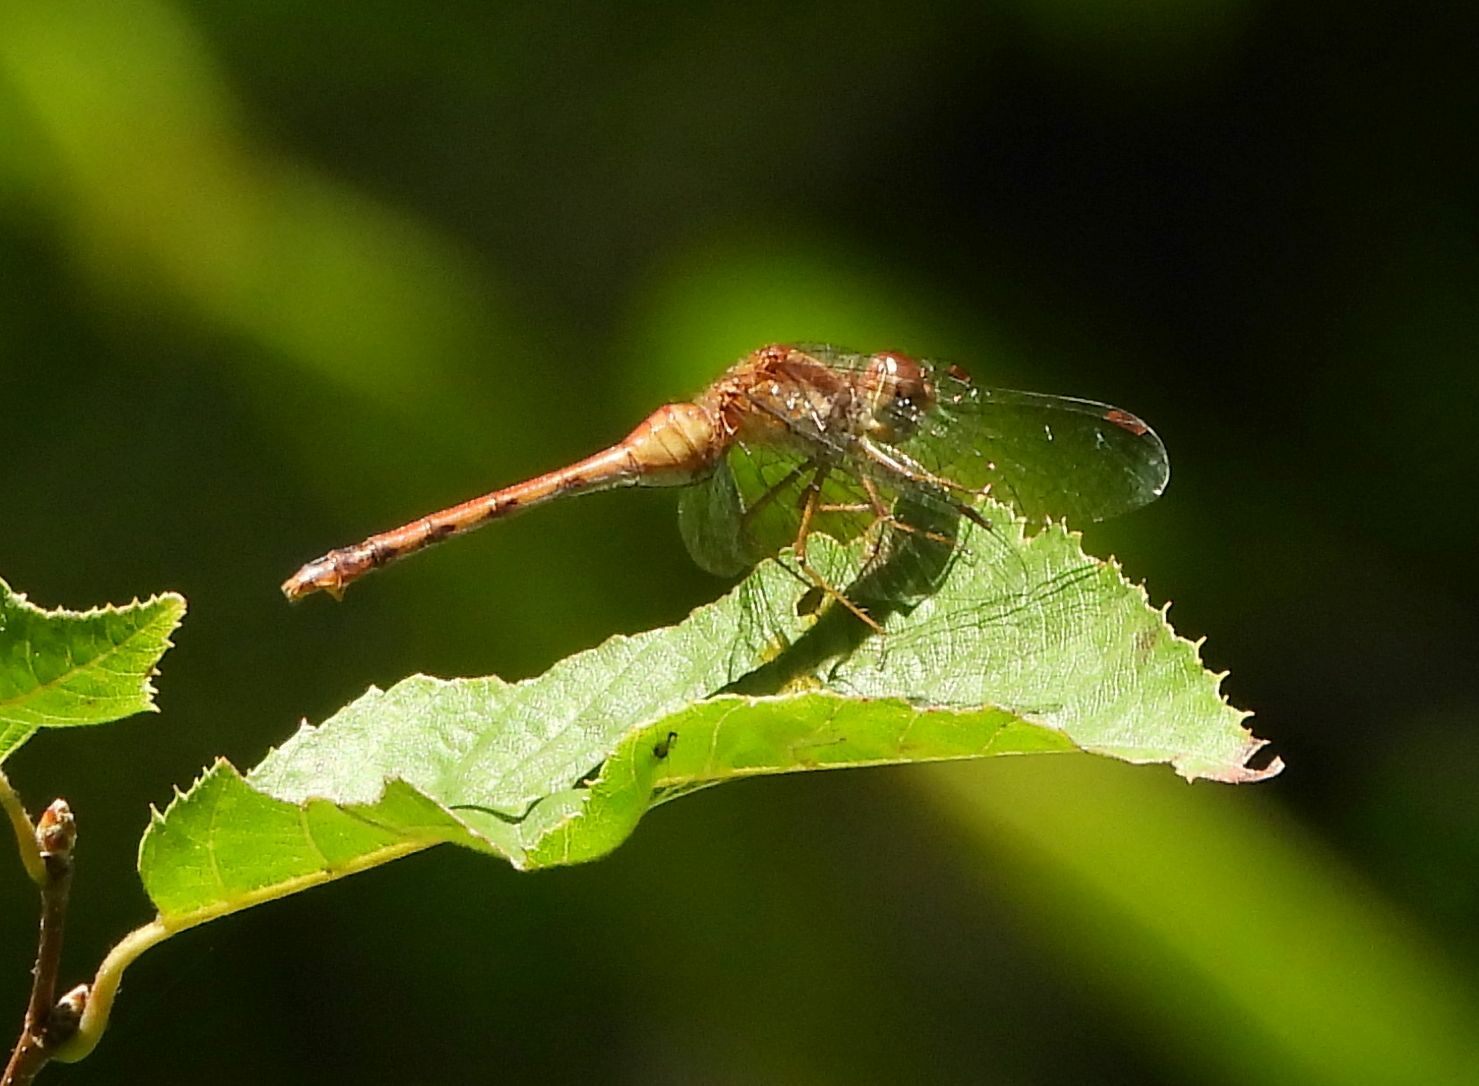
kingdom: Animalia
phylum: Arthropoda
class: Insecta
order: Odonata
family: Libellulidae
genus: Sympetrum
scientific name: Sympetrum vicinum
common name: Autumn meadowhawk
